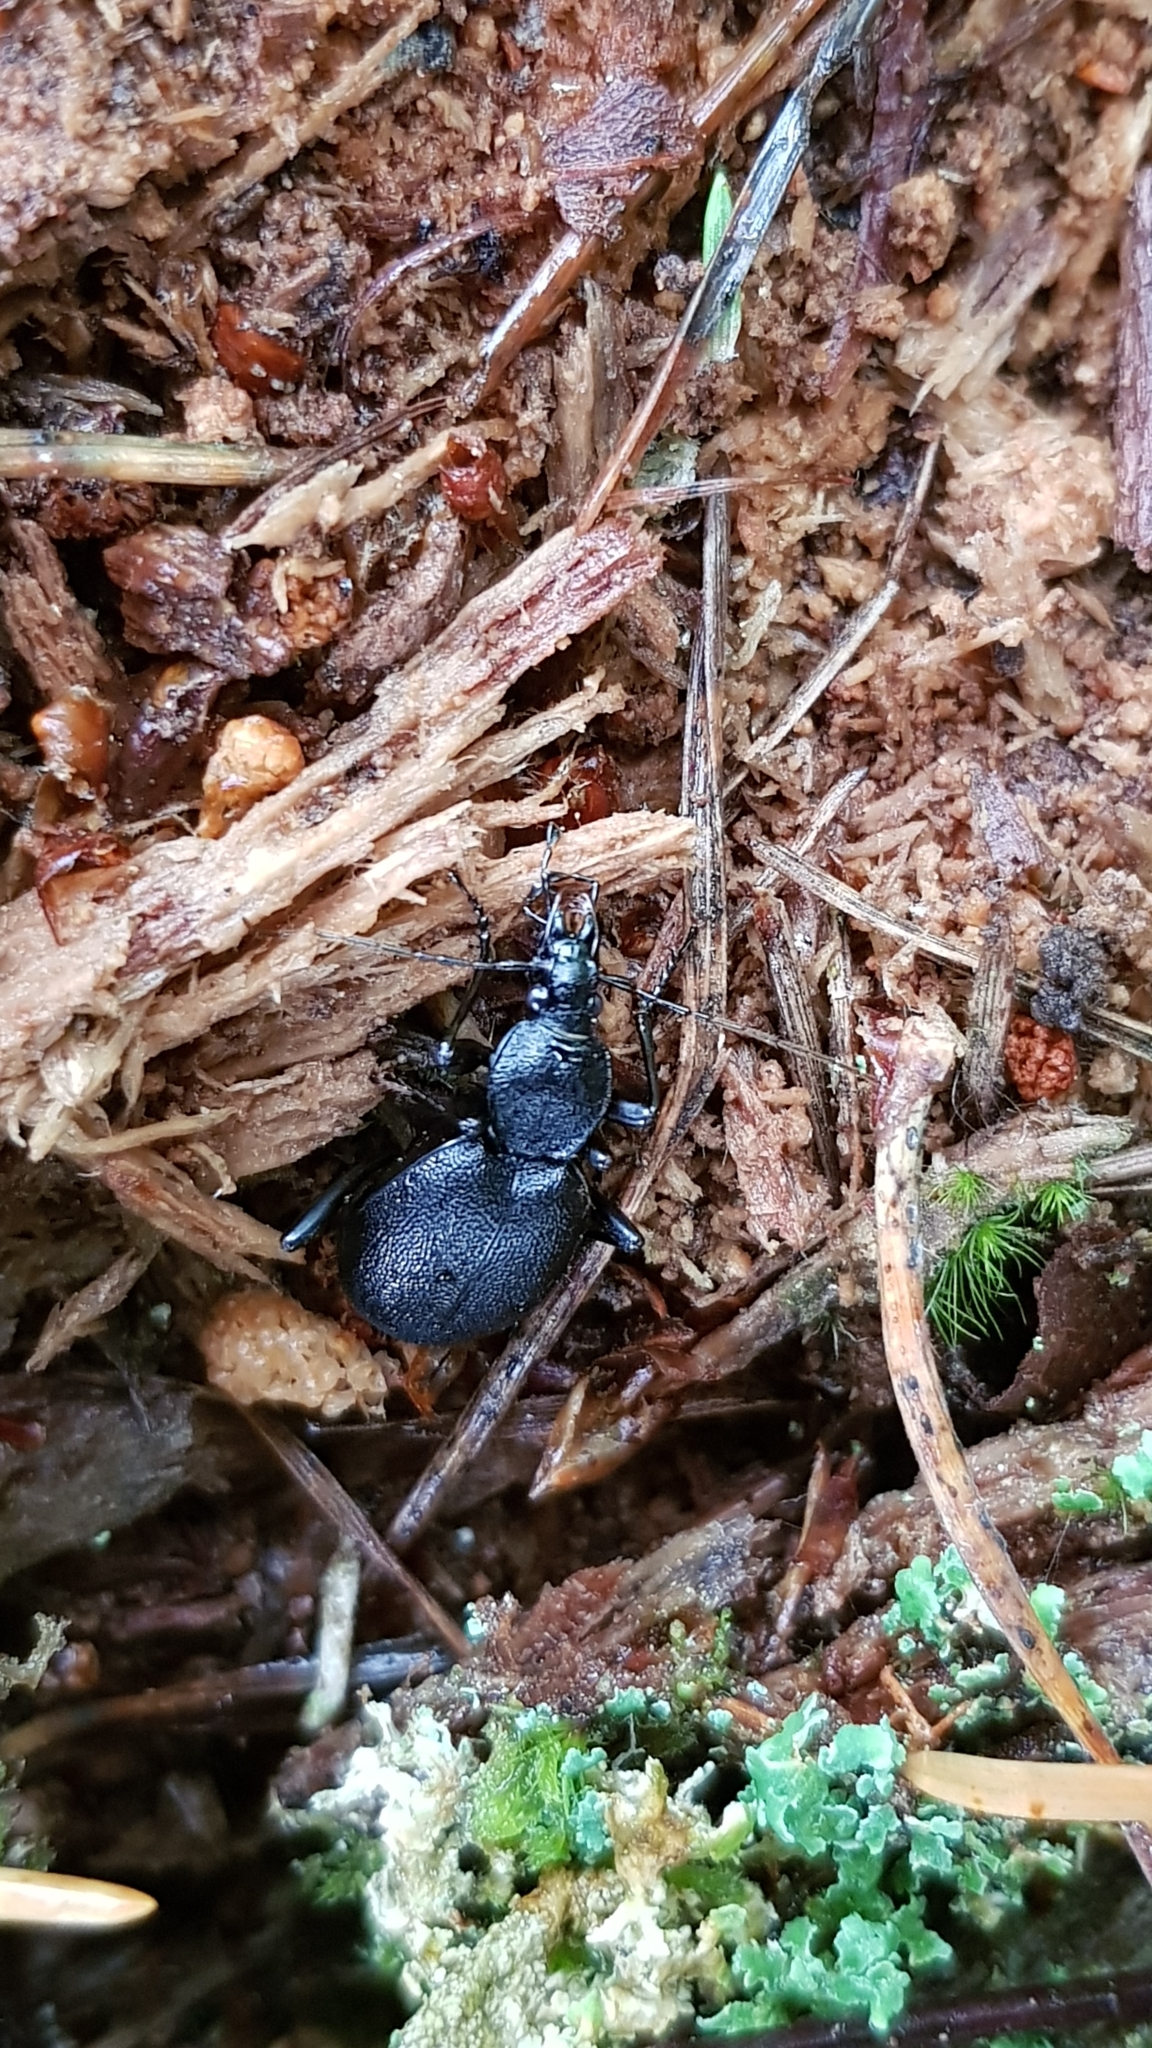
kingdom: Animalia
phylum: Arthropoda
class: Insecta
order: Coleoptera
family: Carabidae
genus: Cychrus
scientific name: Cychrus caraboides
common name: Snail hunter
